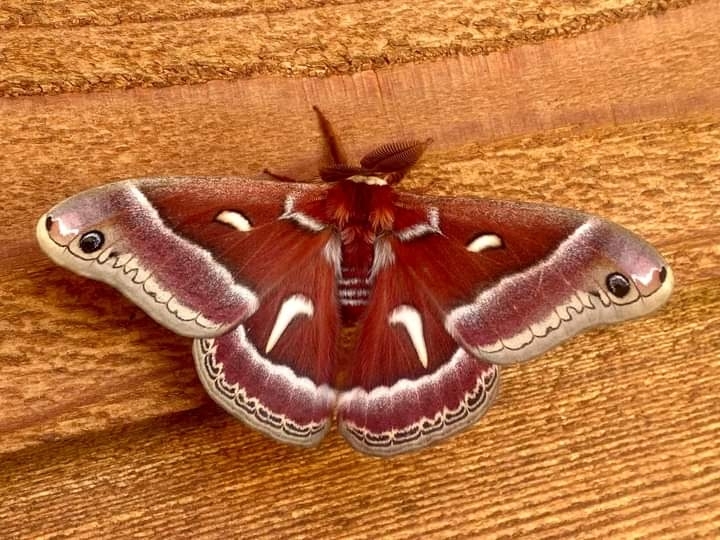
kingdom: Animalia
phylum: Arthropoda
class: Insecta
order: Lepidoptera
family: Saturniidae
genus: Hyalophora
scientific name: Hyalophora euryalus
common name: Ceanothus silkmoth
